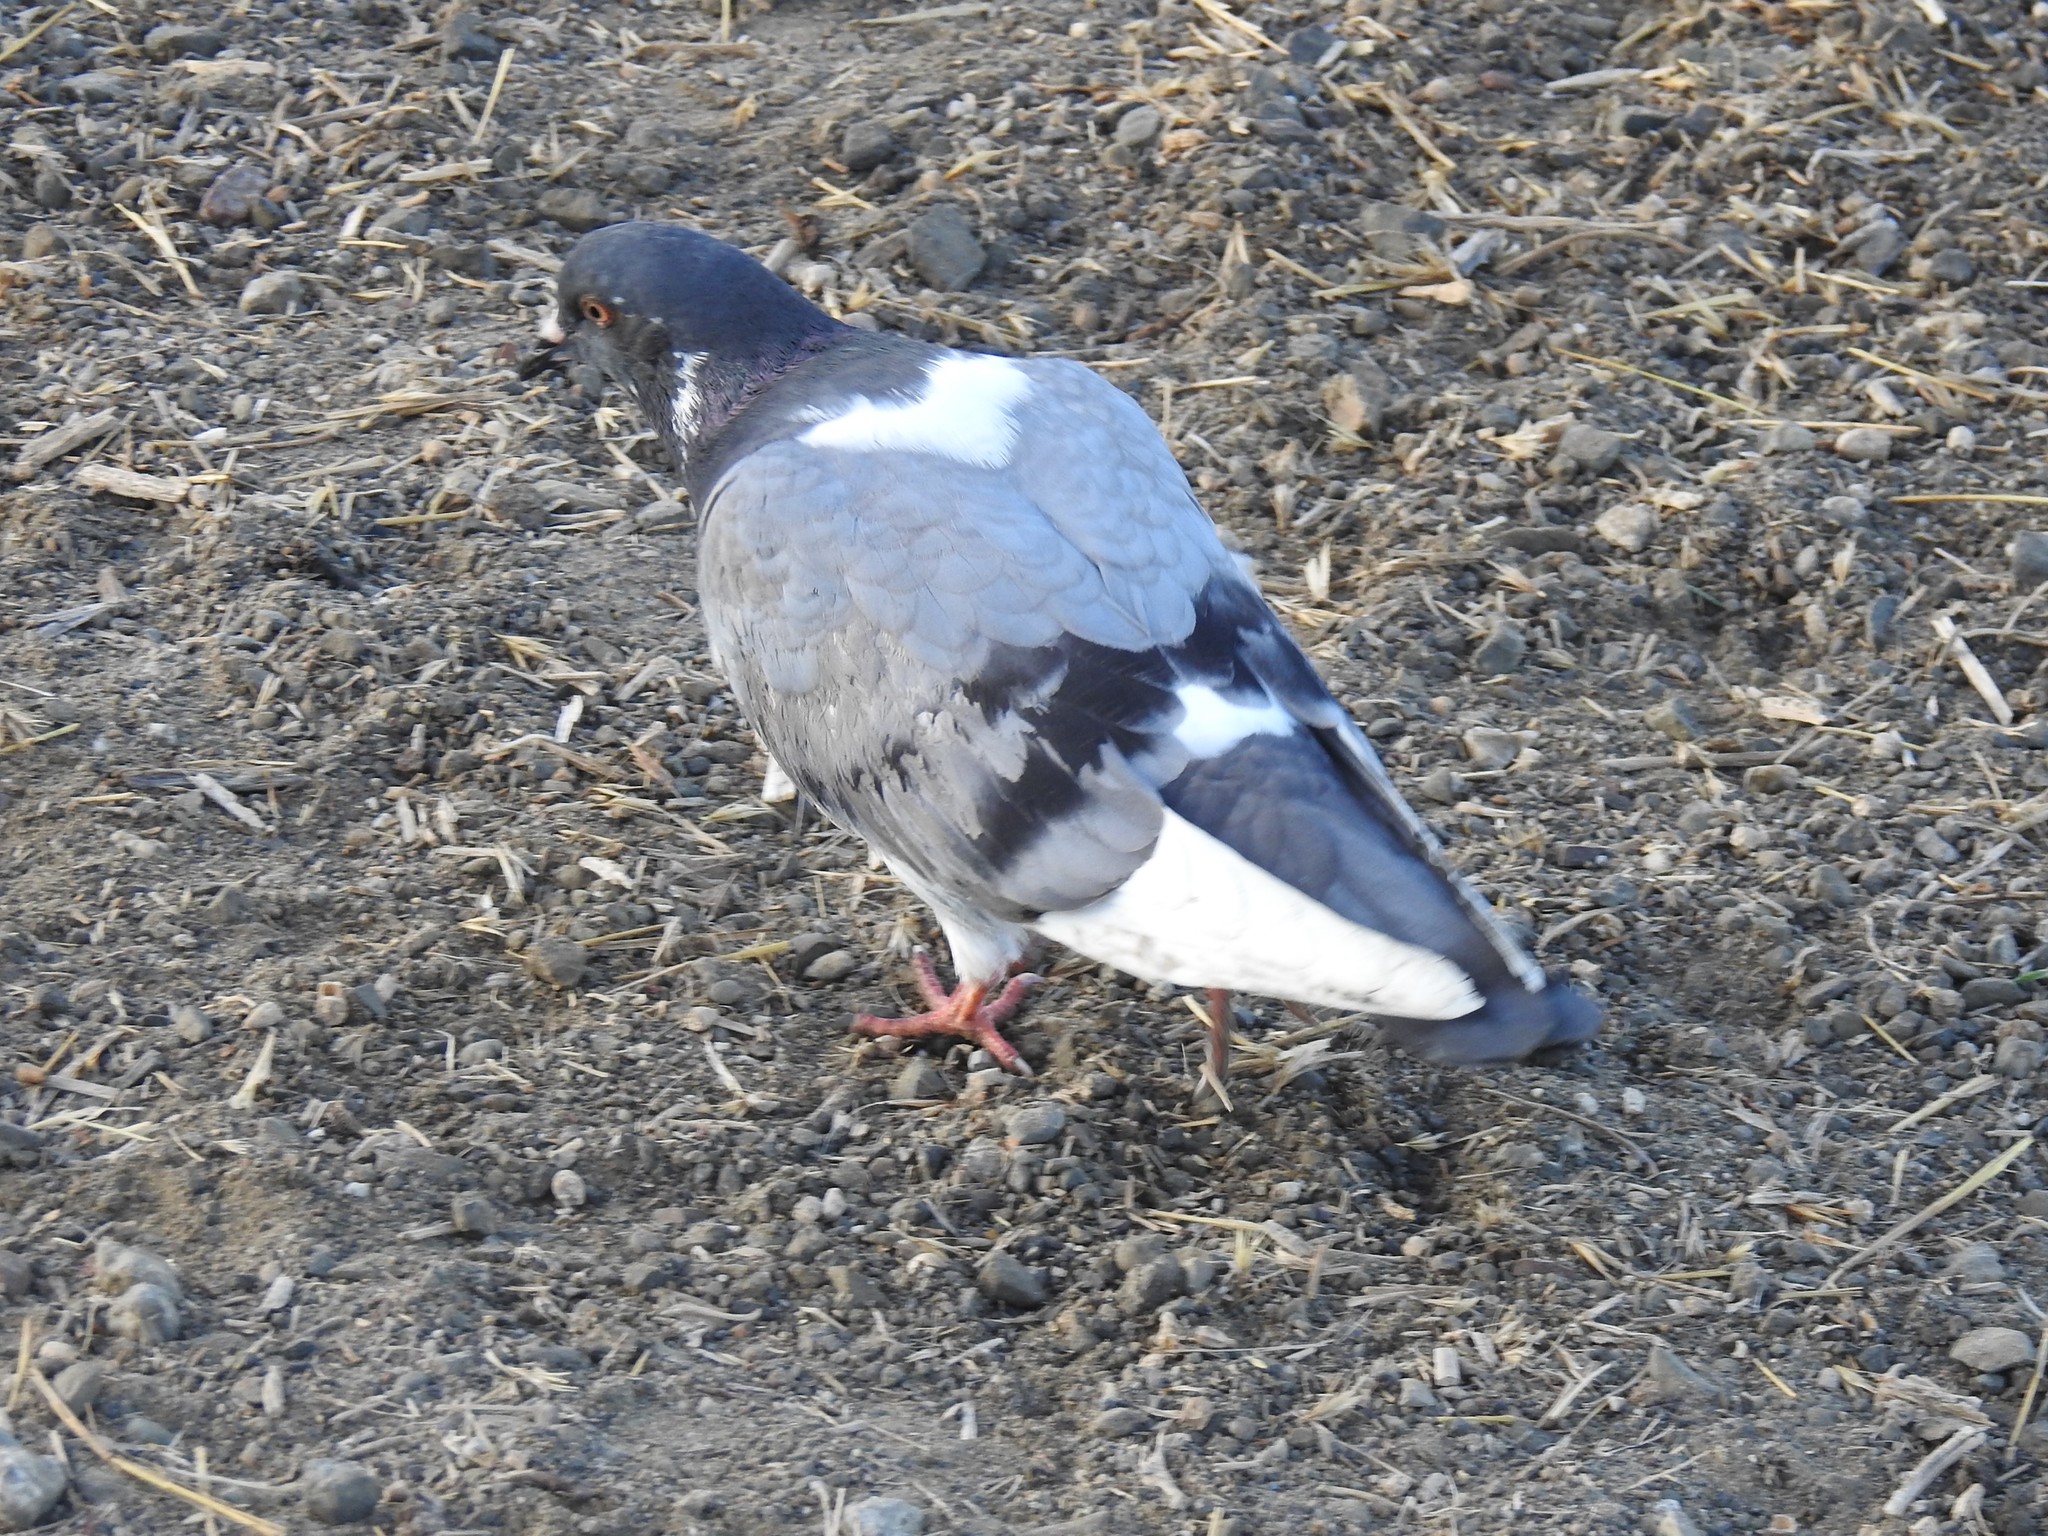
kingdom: Animalia
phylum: Chordata
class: Aves
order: Columbiformes
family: Columbidae
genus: Columba
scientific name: Columba livia
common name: Rock pigeon
